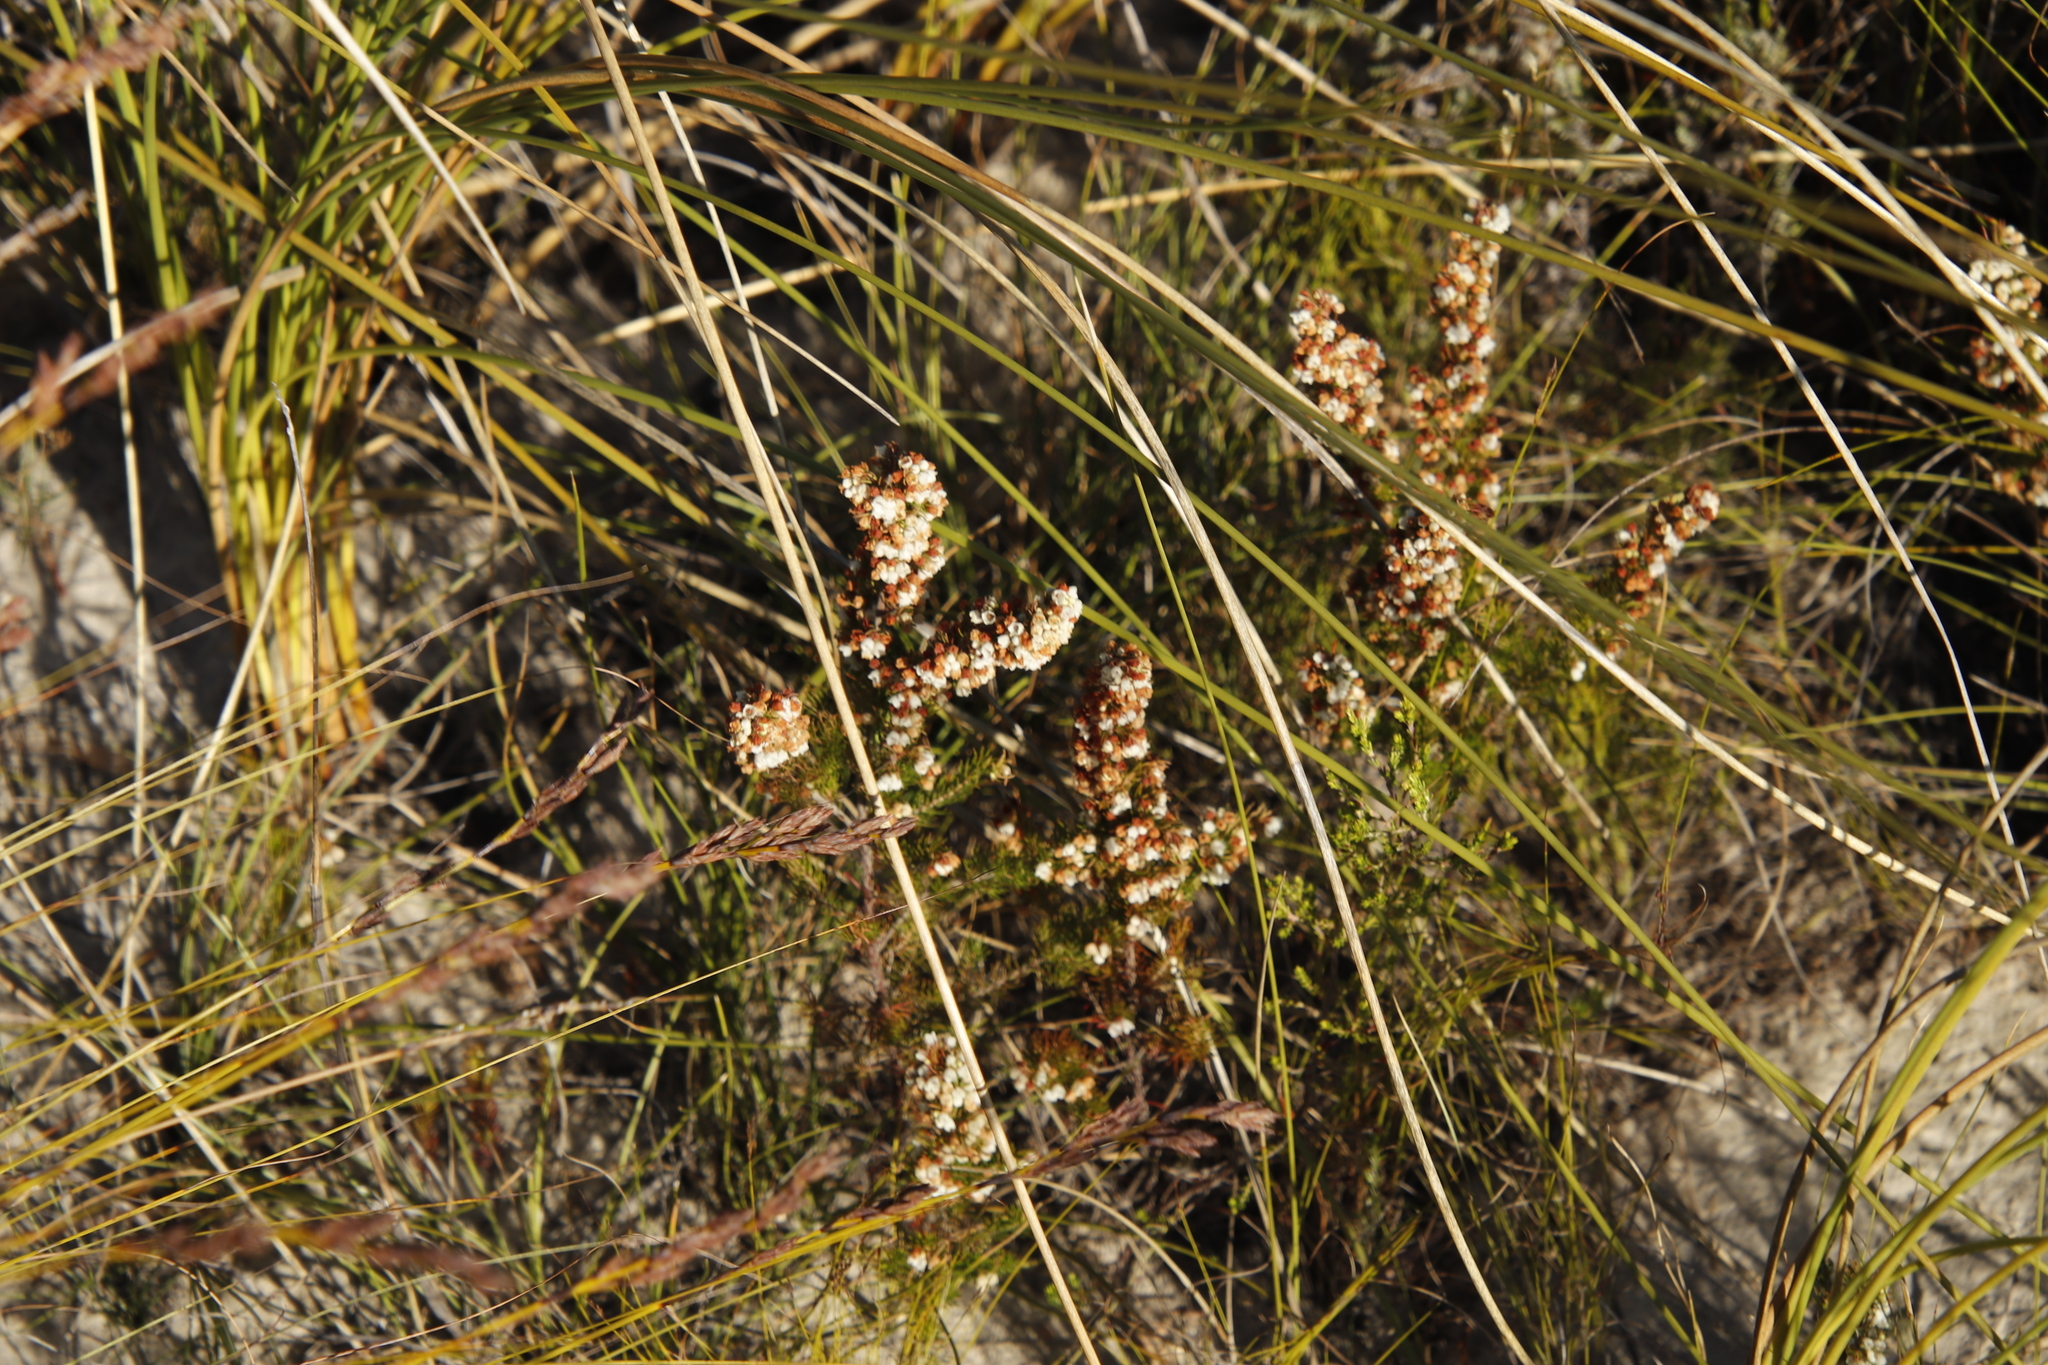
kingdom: Plantae
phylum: Tracheophyta
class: Magnoliopsida
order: Ericales
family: Ericaceae
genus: Erica
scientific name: Erica subdivaricata
